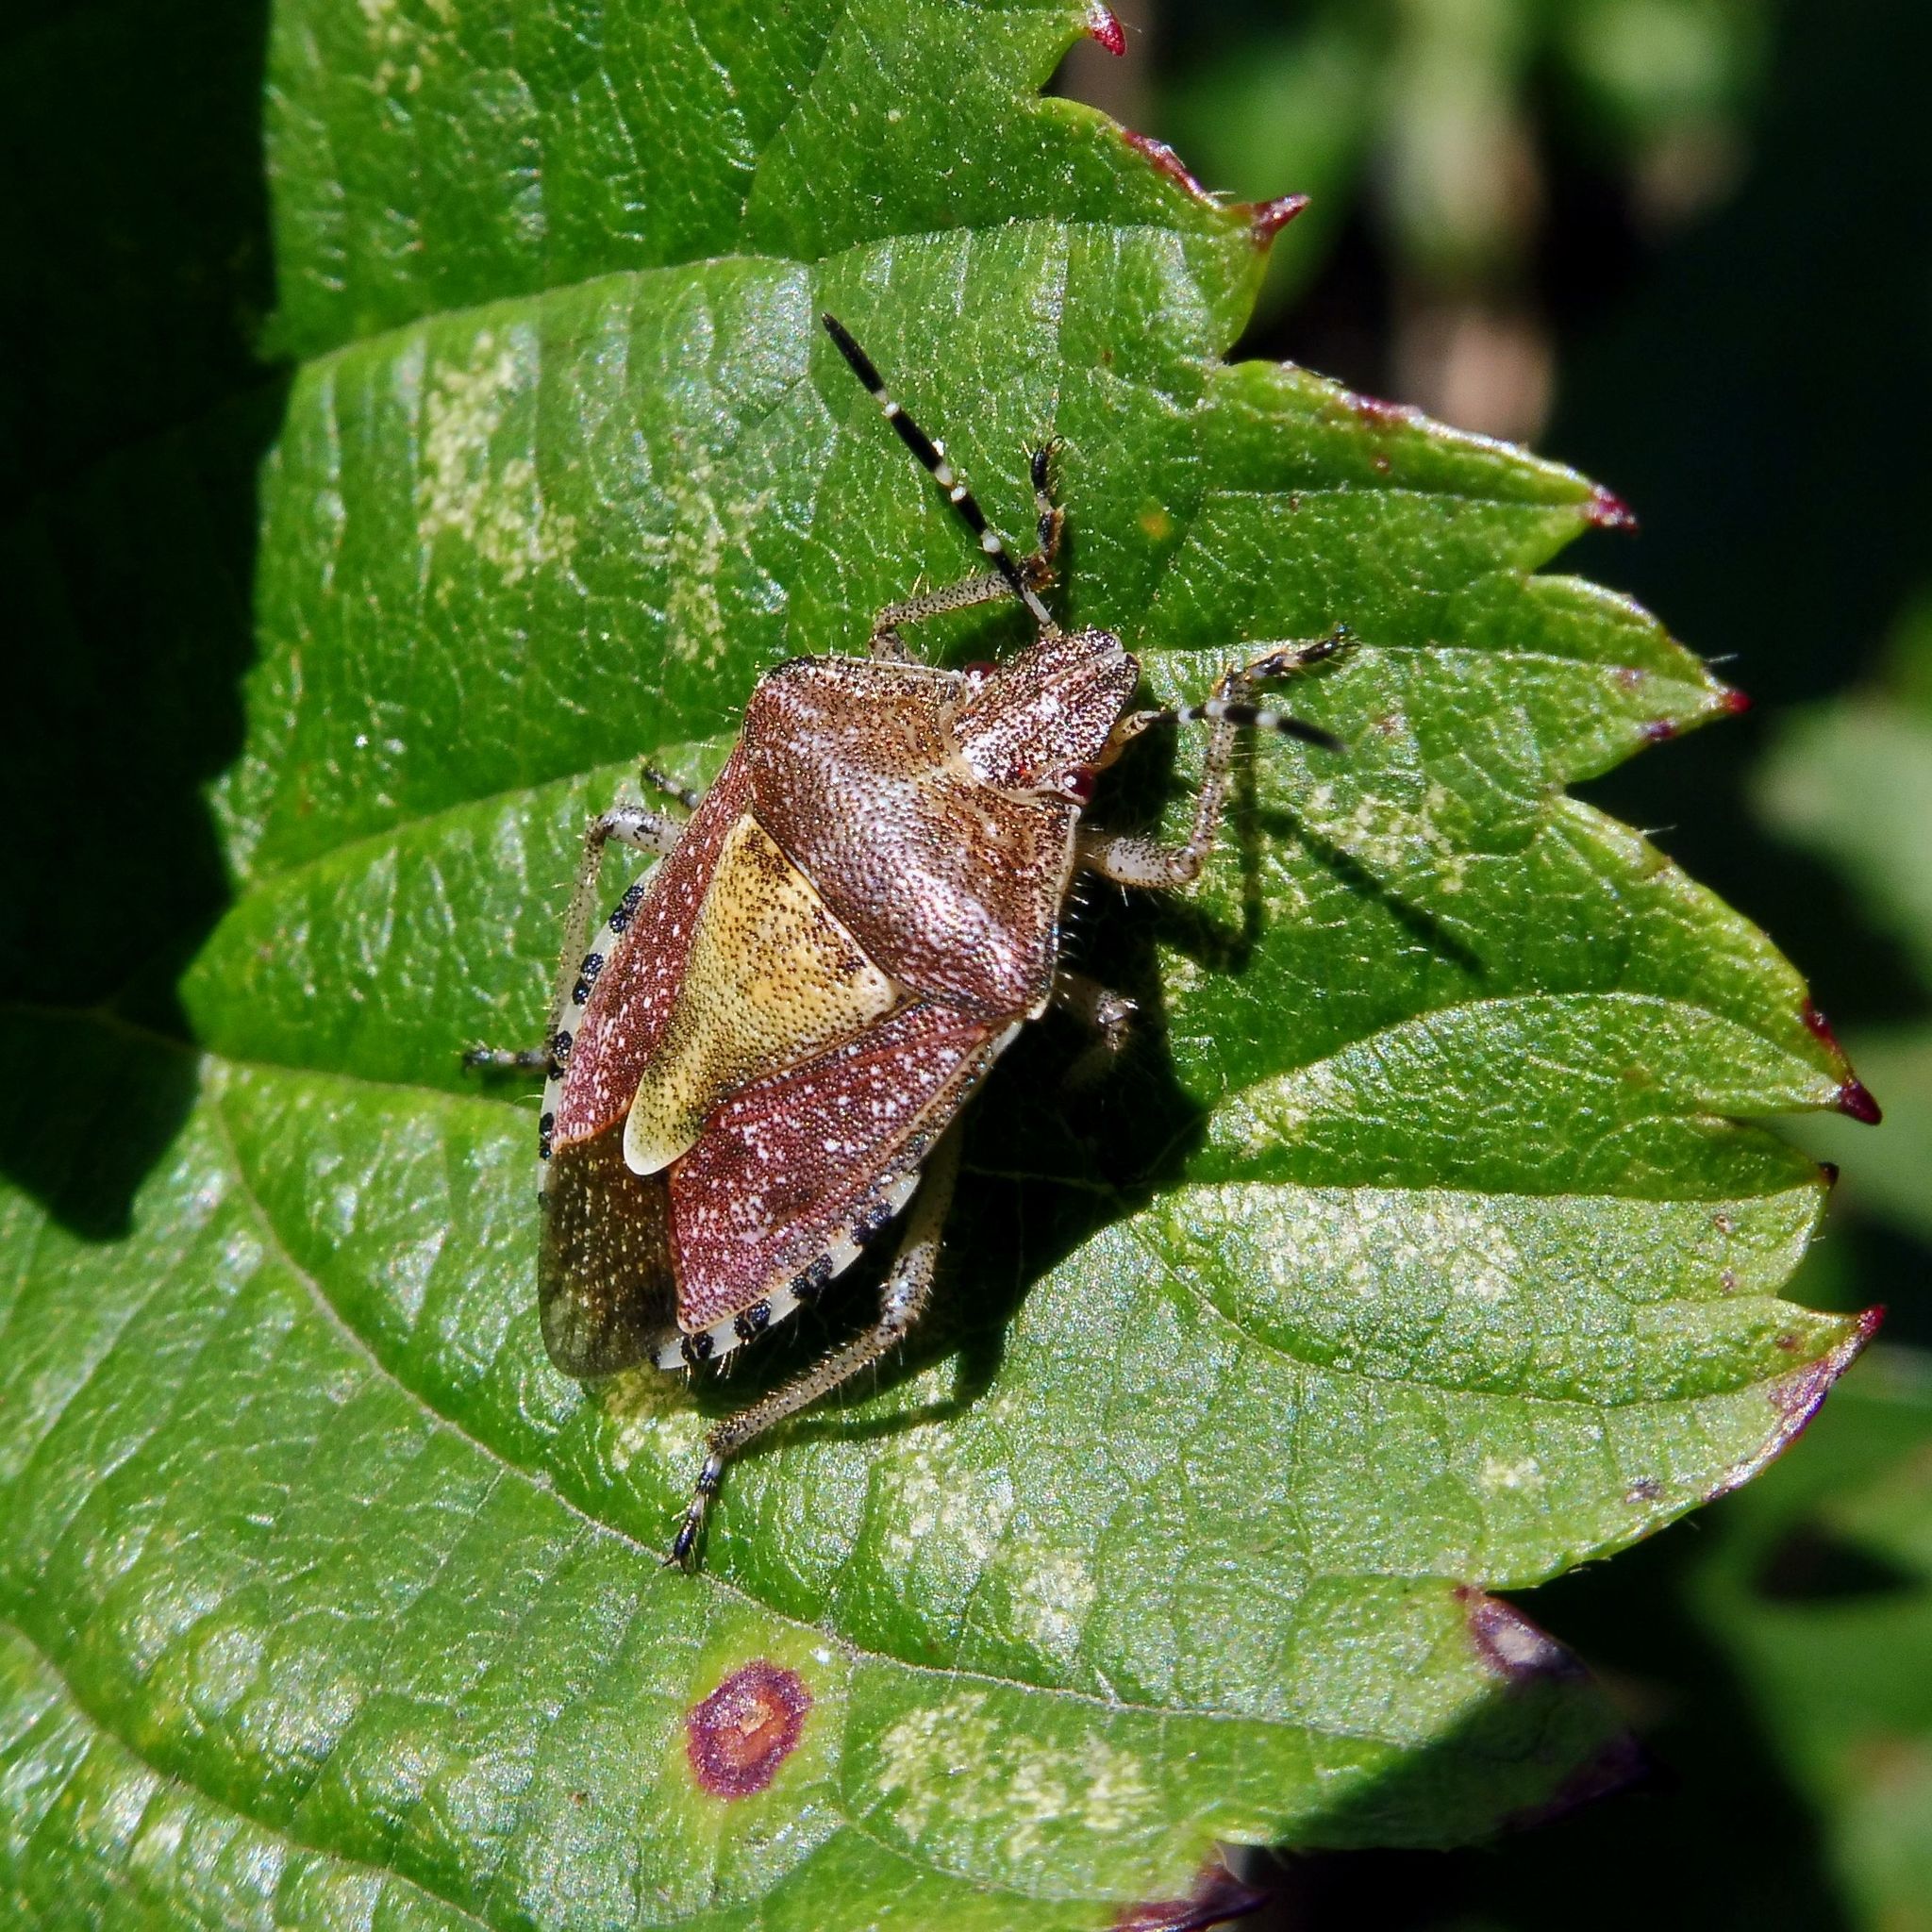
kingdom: Animalia
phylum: Arthropoda
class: Insecta
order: Hemiptera
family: Pentatomidae
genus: Dolycoris
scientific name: Dolycoris baccarum
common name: Sloe bug
